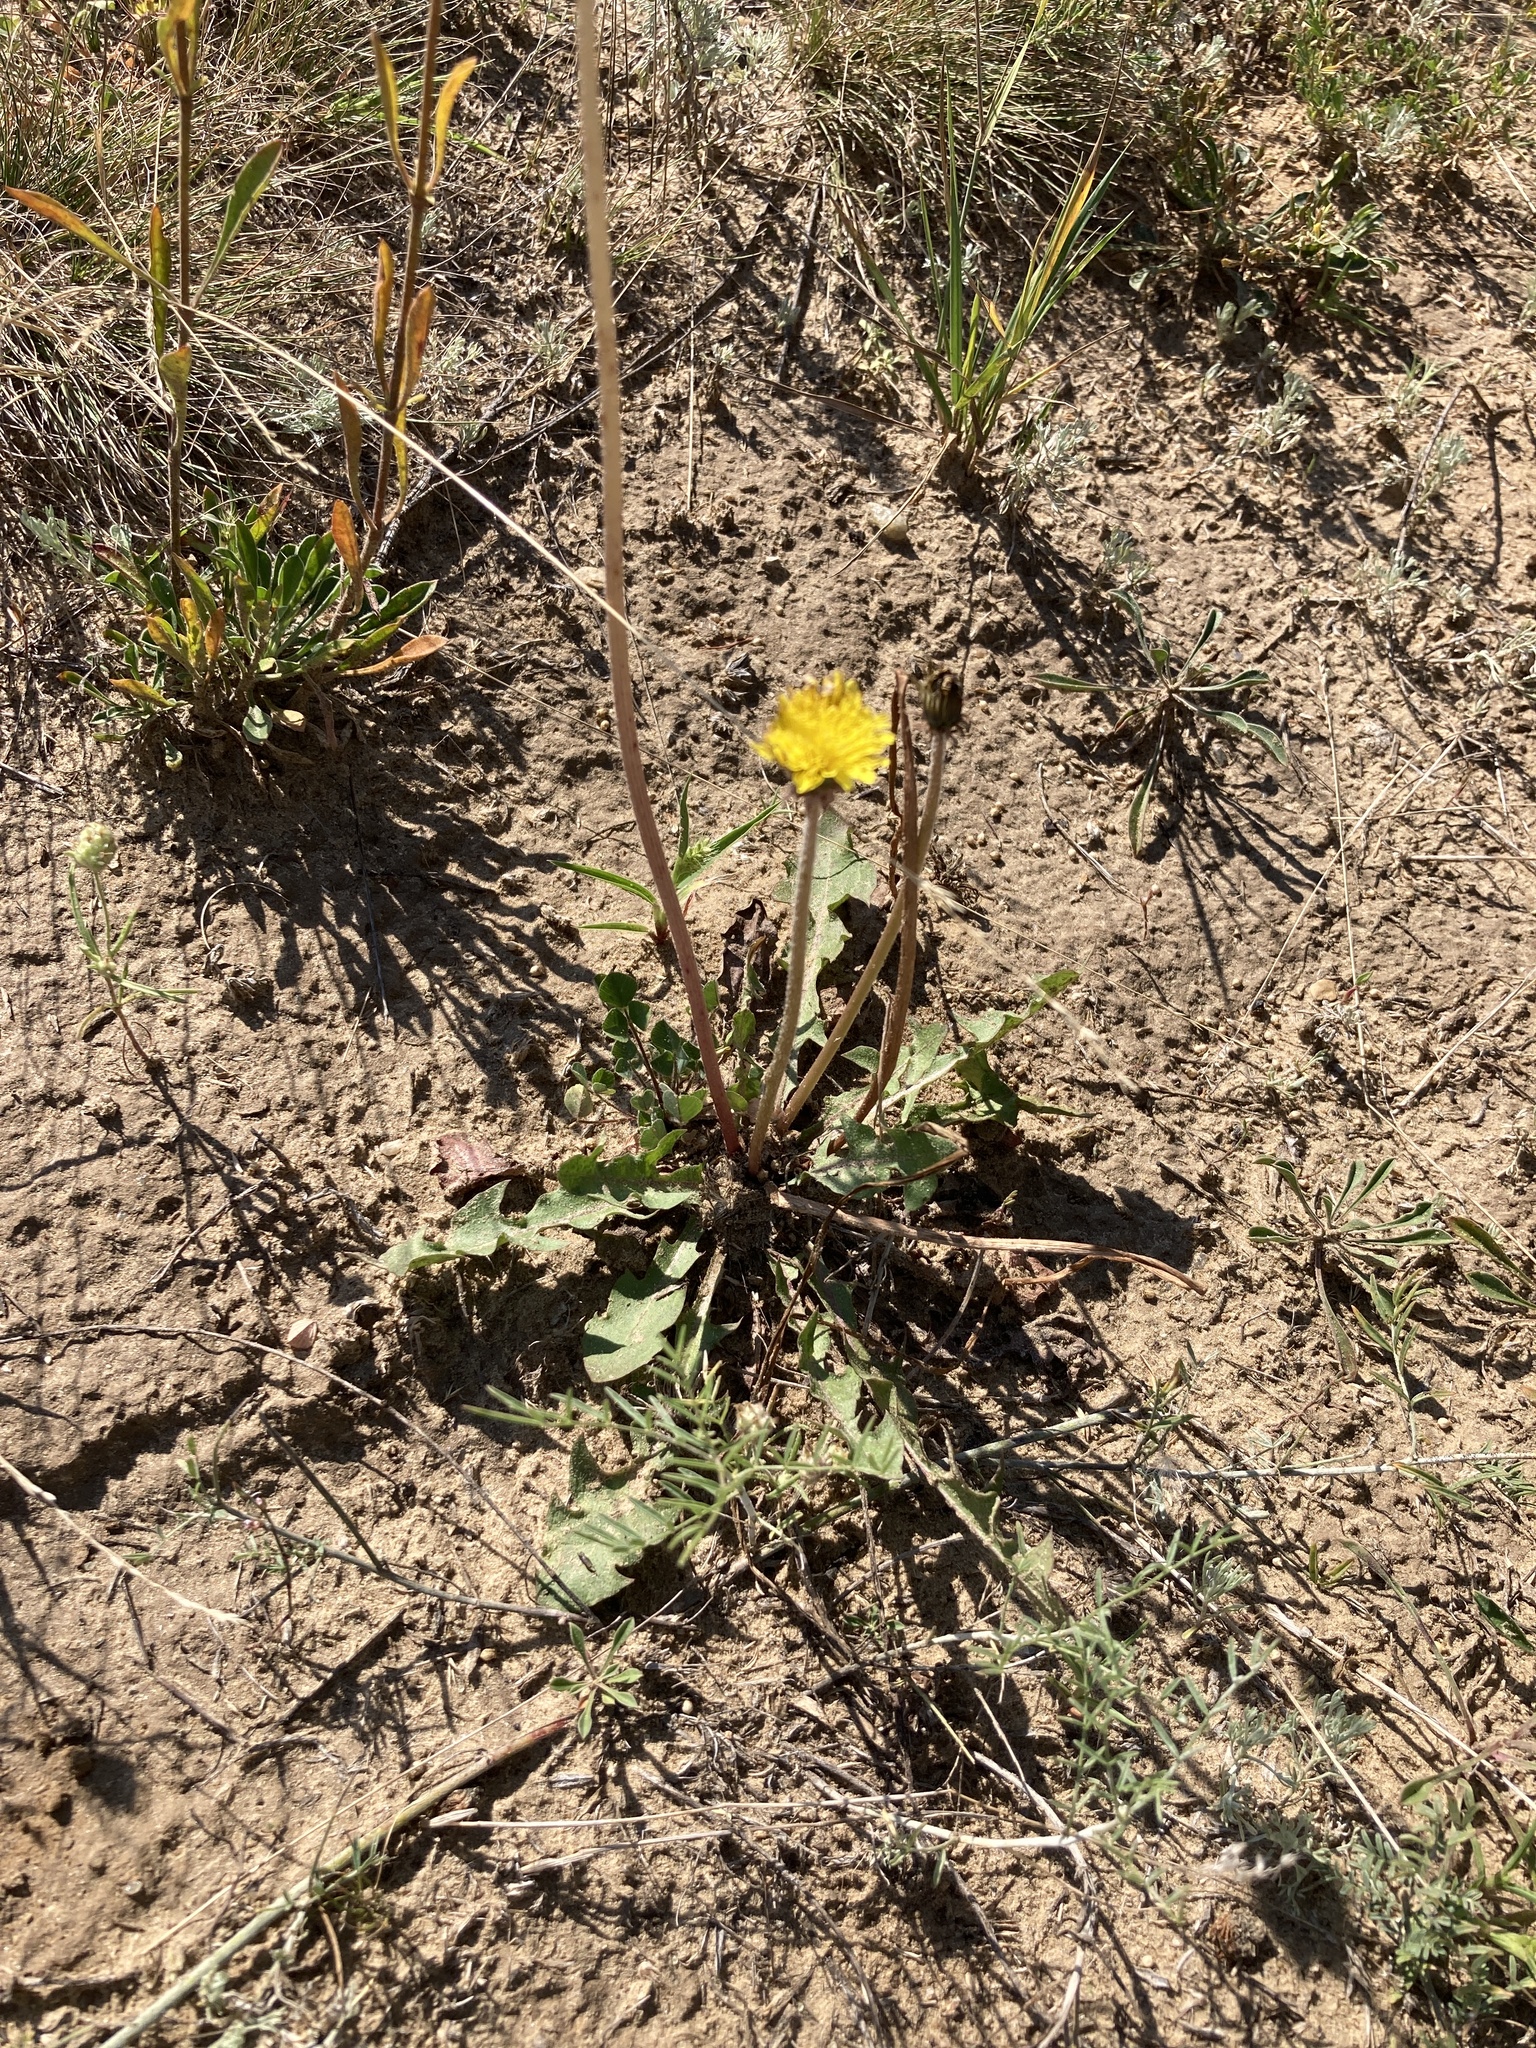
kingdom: Plantae
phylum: Tracheophyta
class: Magnoliopsida
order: Asterales
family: Asteraceae
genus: Taraxacum
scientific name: Taraxacum serotinum
